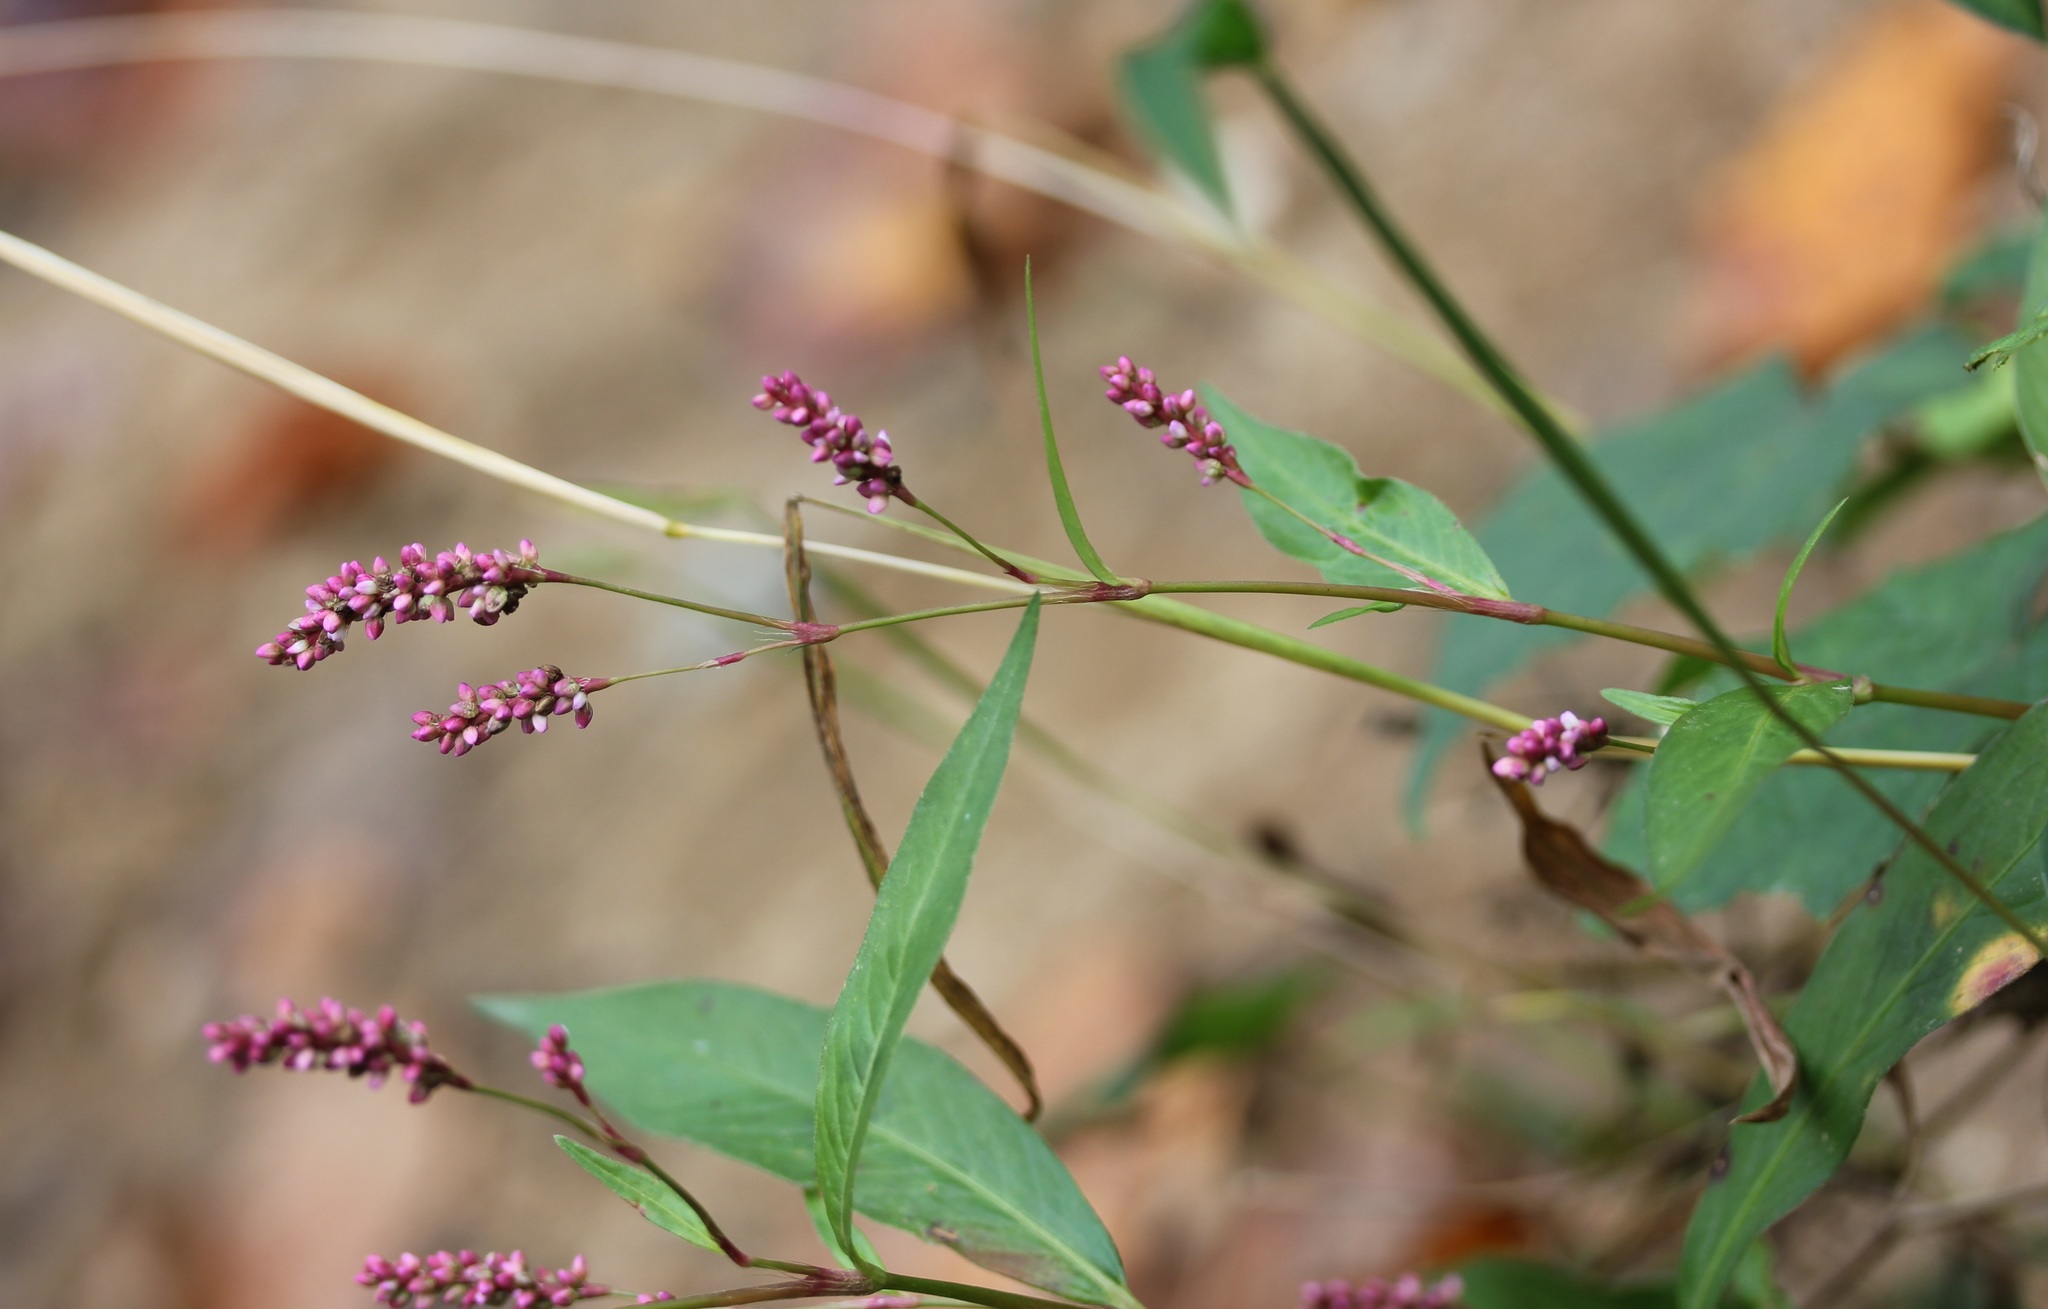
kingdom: Plantae
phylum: Tracheophyta
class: Magnoliopsida
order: Caryophyllales
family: Polygonaceae
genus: Persicaria
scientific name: Persicaria longiseta
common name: Bristly lady's-thumb
